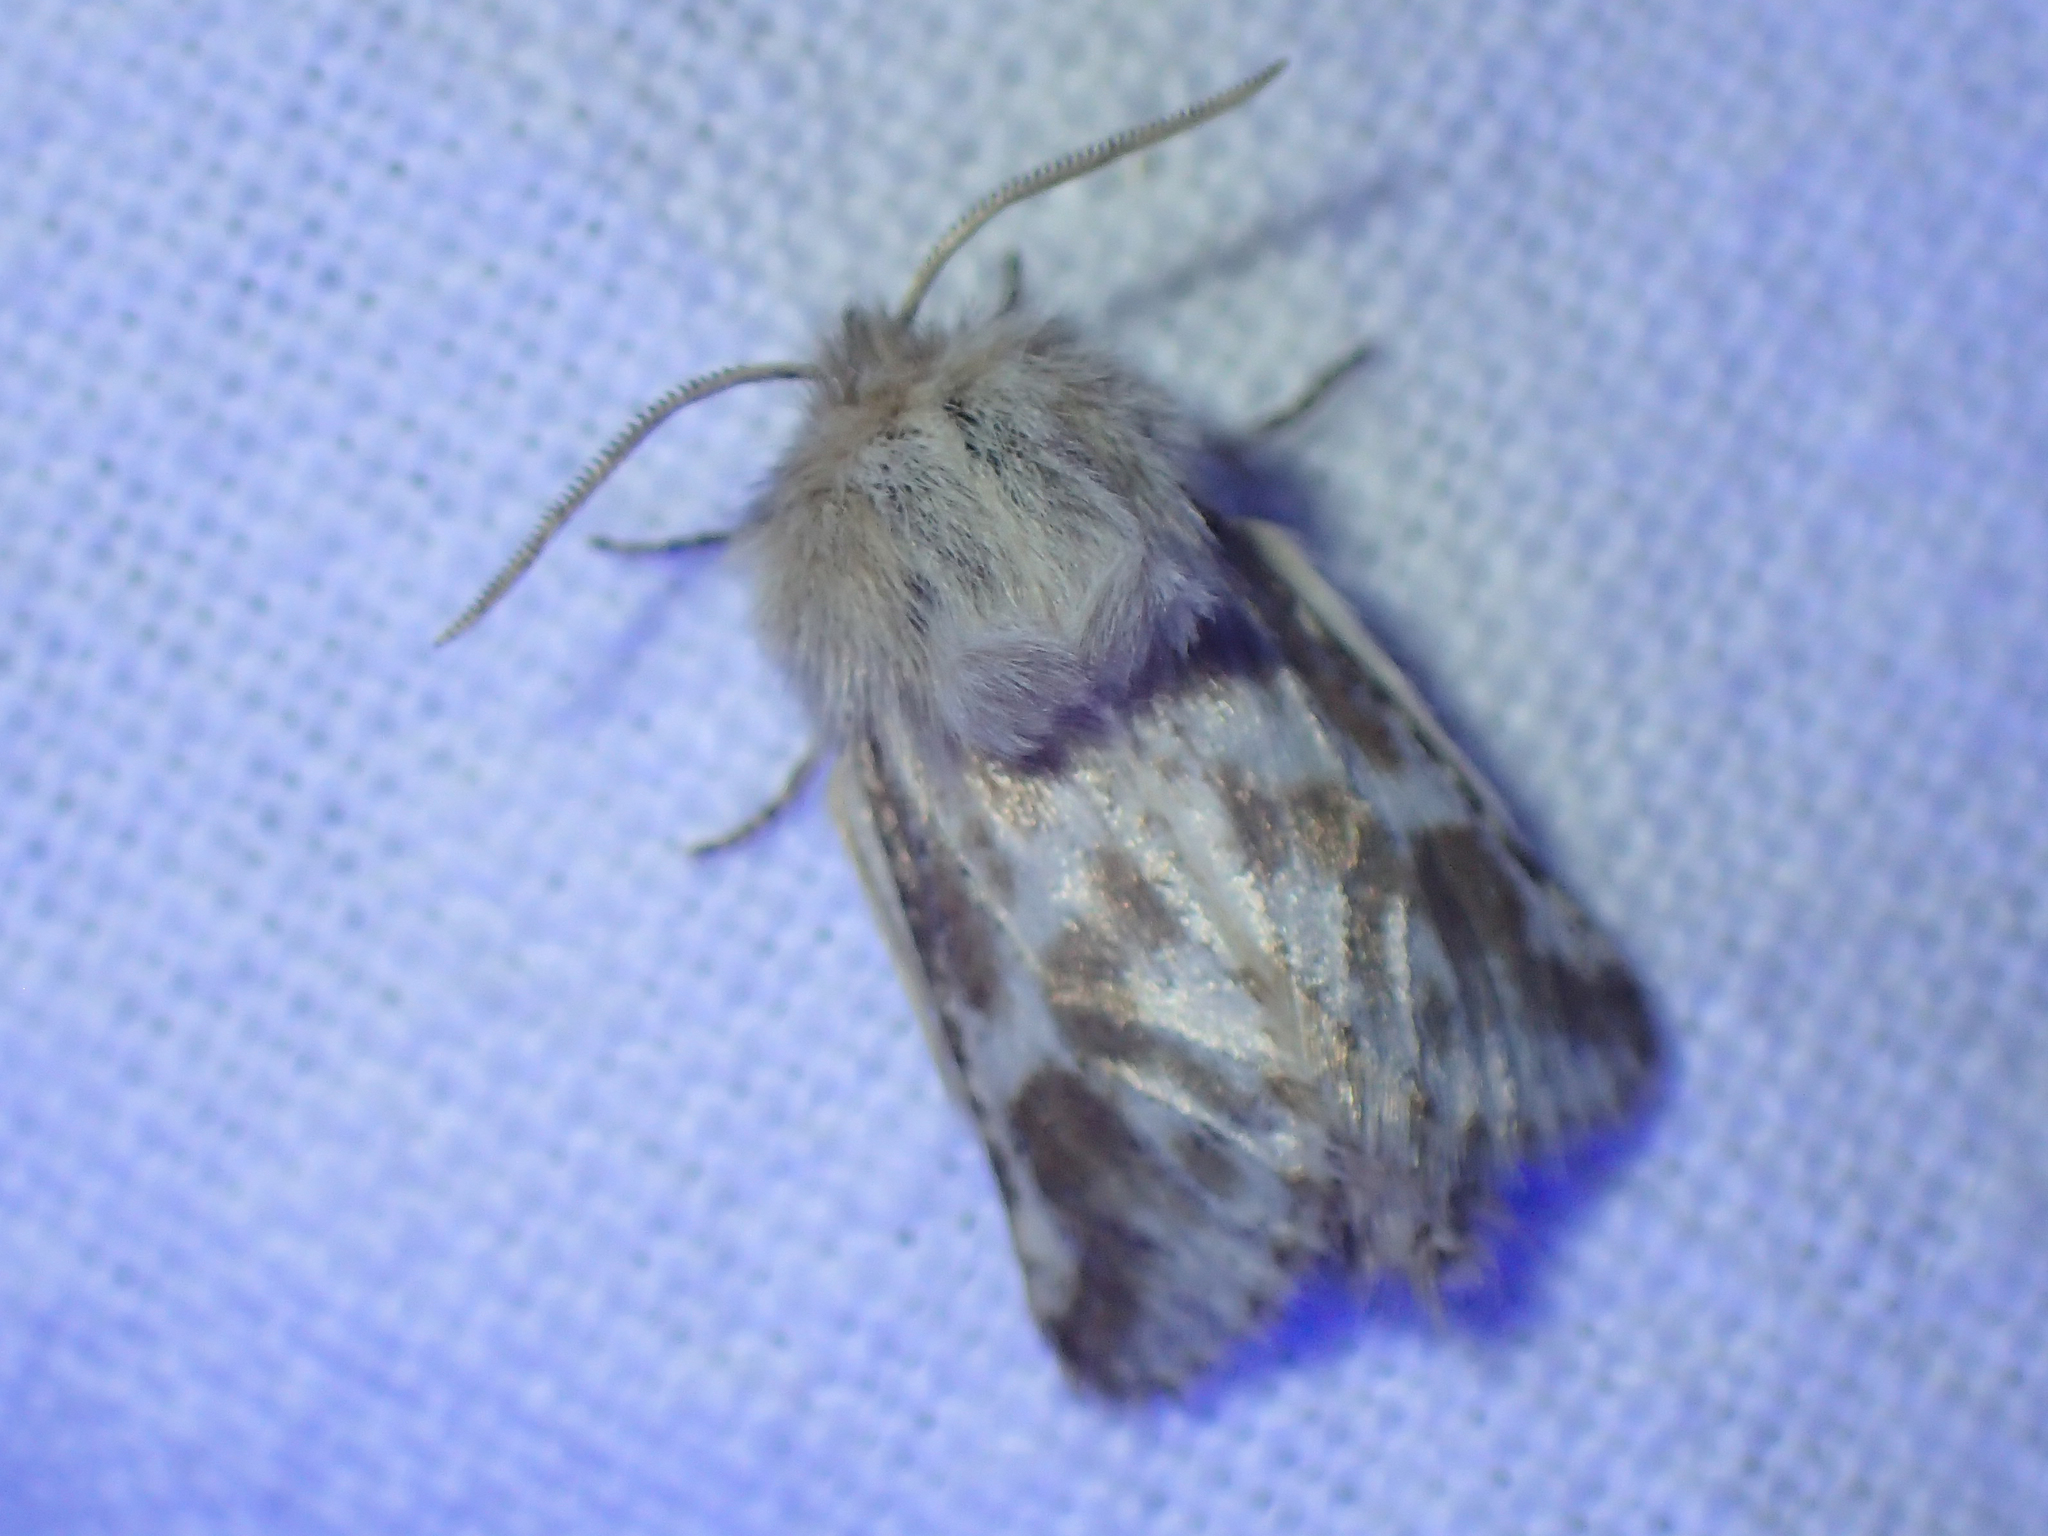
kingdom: Animalia
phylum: Arthropoda
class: Insecta
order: Lepidoptera
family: Cossidae
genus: Dyspessa
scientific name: Dyspessa ulula
